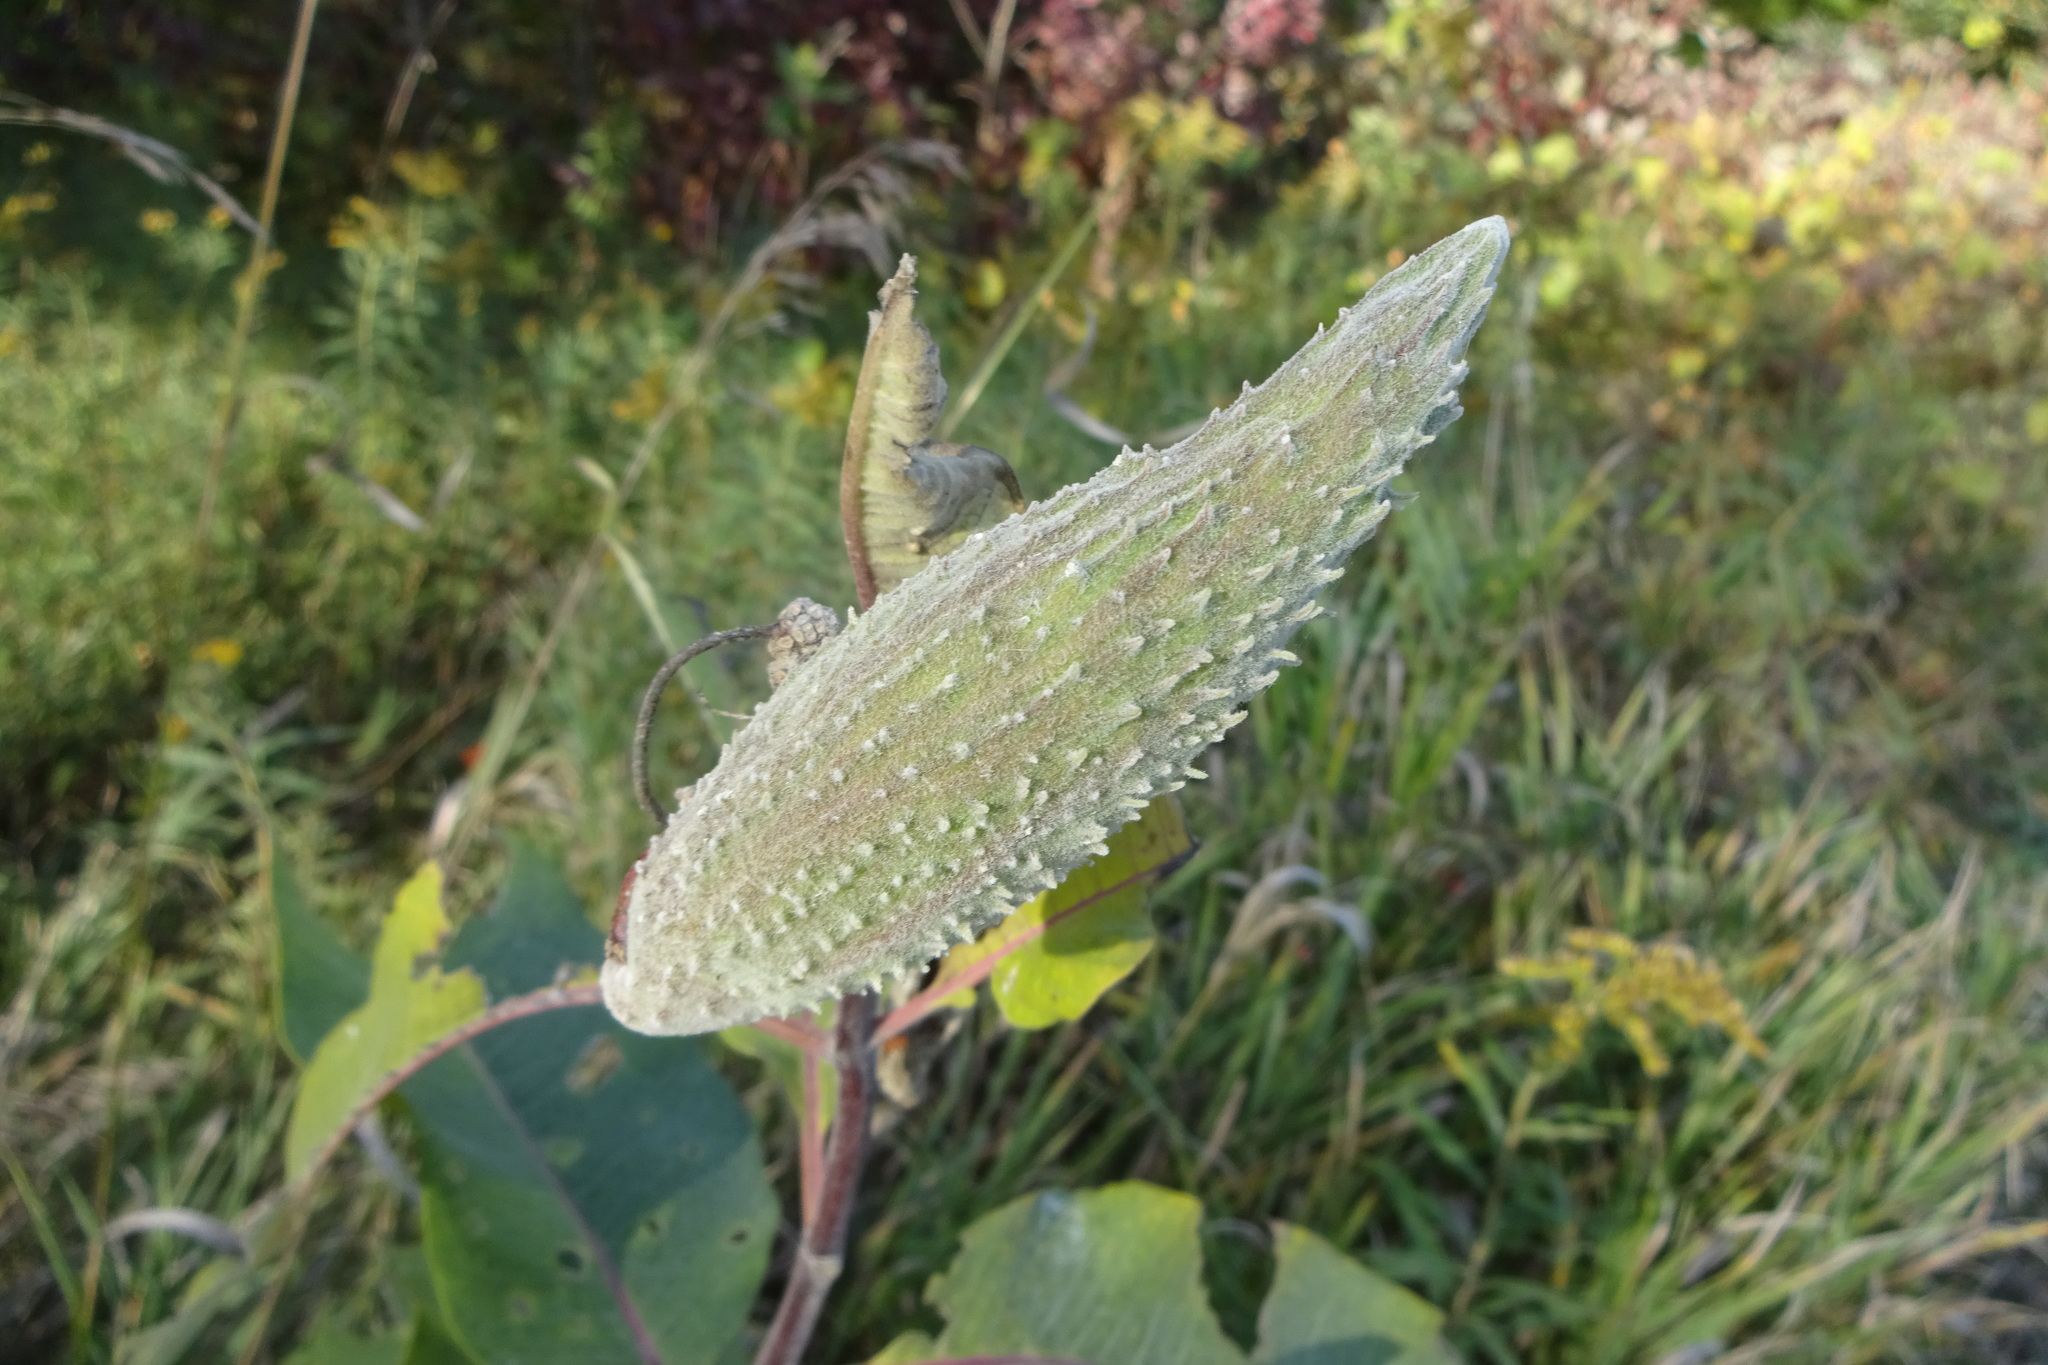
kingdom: Plantae
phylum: Tracheophyta
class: Magnoliopsida
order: Gentianales
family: Apocynaceae
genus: Asclepias
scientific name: Asclepias syriaca
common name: Common milkweed
